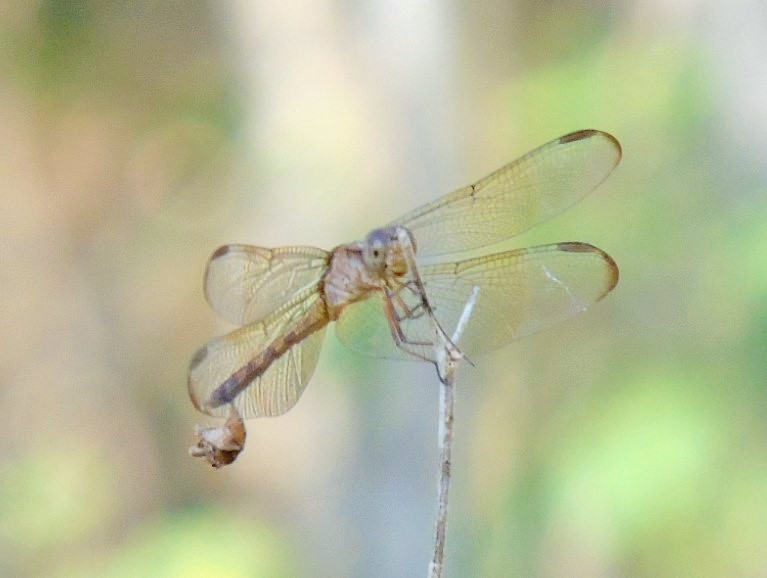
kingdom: Animalia
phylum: Arthropoda
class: Insecta
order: Odonata
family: Libellulidae
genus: Erythrodiplax
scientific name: Erythrodiplax
